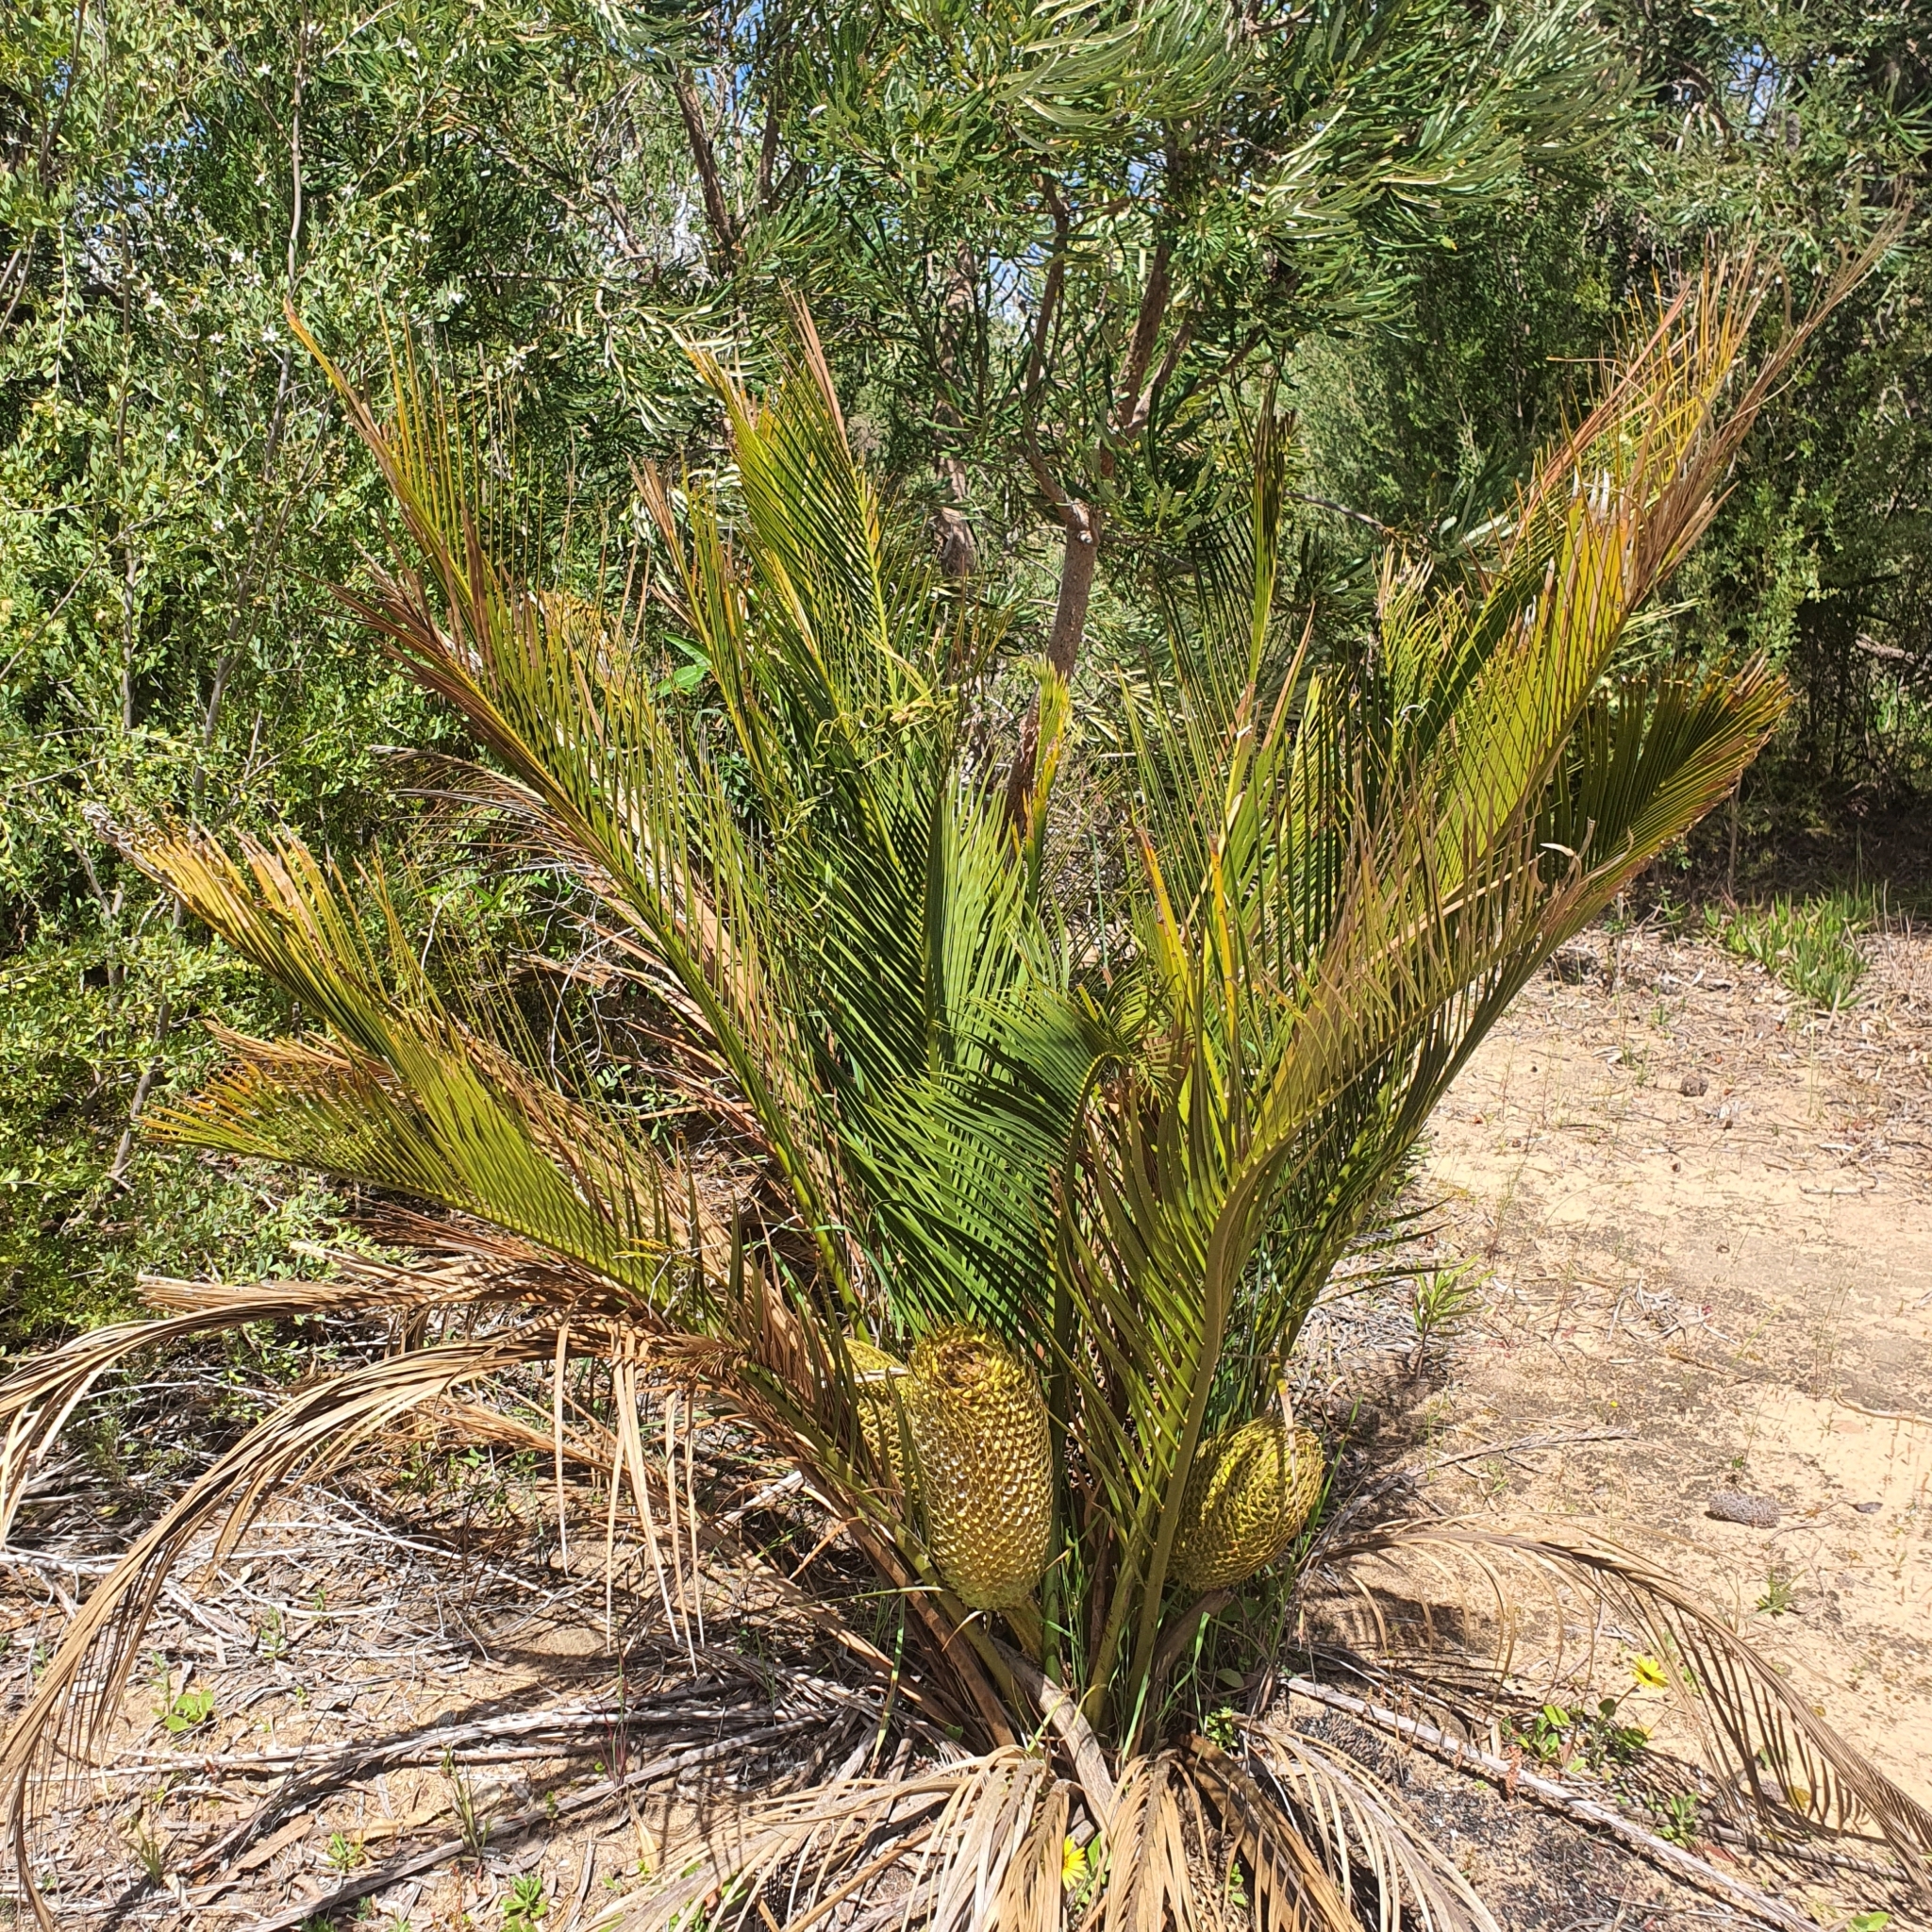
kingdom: Plantae
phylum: Tracheophyta
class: Cycadopsida
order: Cycadales
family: Zamiaceae
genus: Macrozamia
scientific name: Macrozamia riedlei
